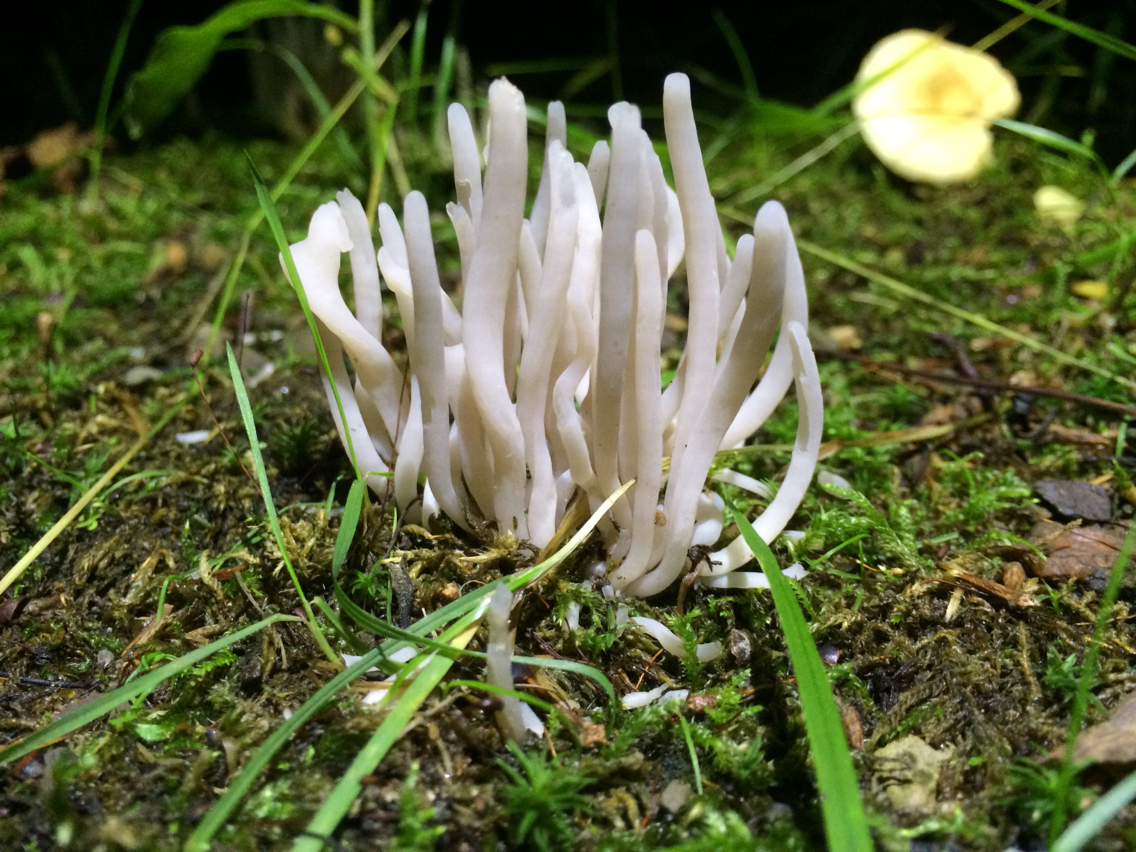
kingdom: Fungi
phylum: Basidiomycota
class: Agaricomycetes
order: Agaricales
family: Clavariaceae
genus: Clavaria
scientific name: Clavaria fragilis
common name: White spindles
